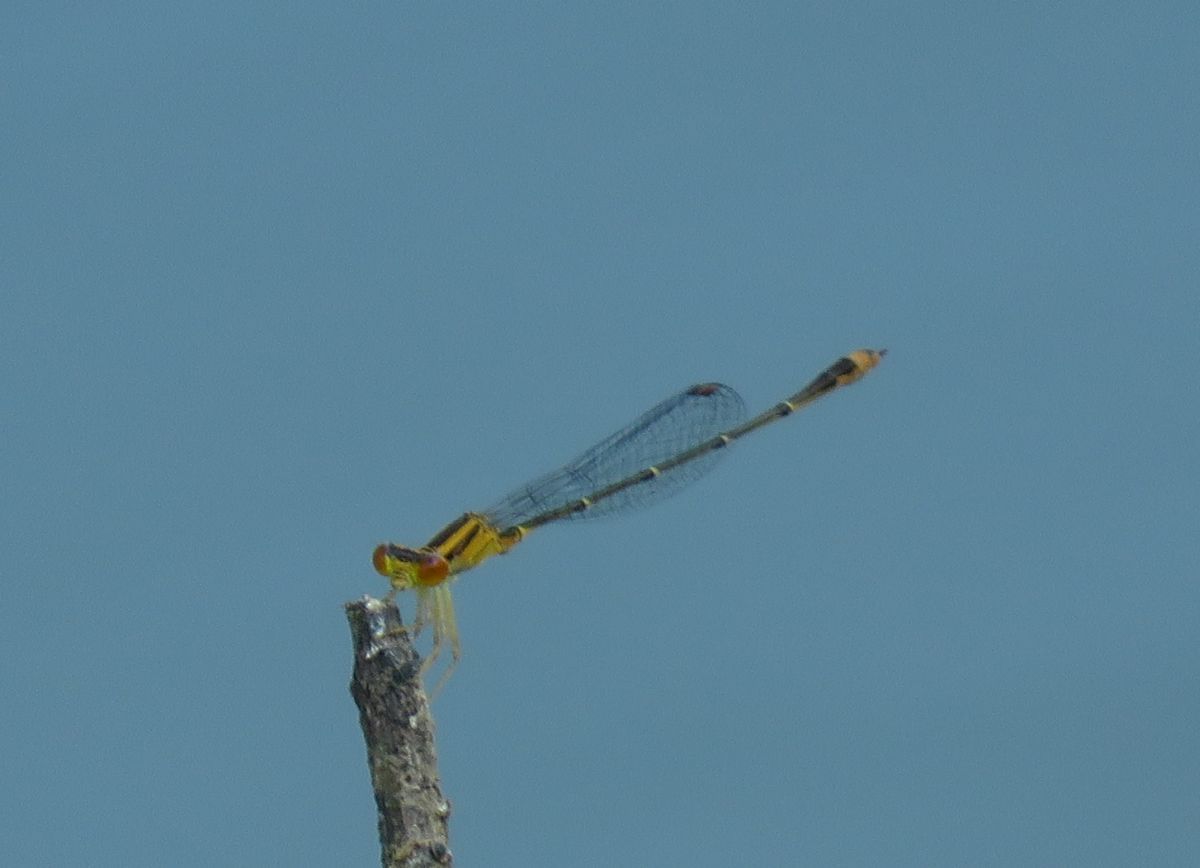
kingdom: Animalia
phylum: Arthropoda
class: Insecta
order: Odonata
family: Coenagrionidae
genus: Enallagma
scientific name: Enallagma signatum
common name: Orange bluet
